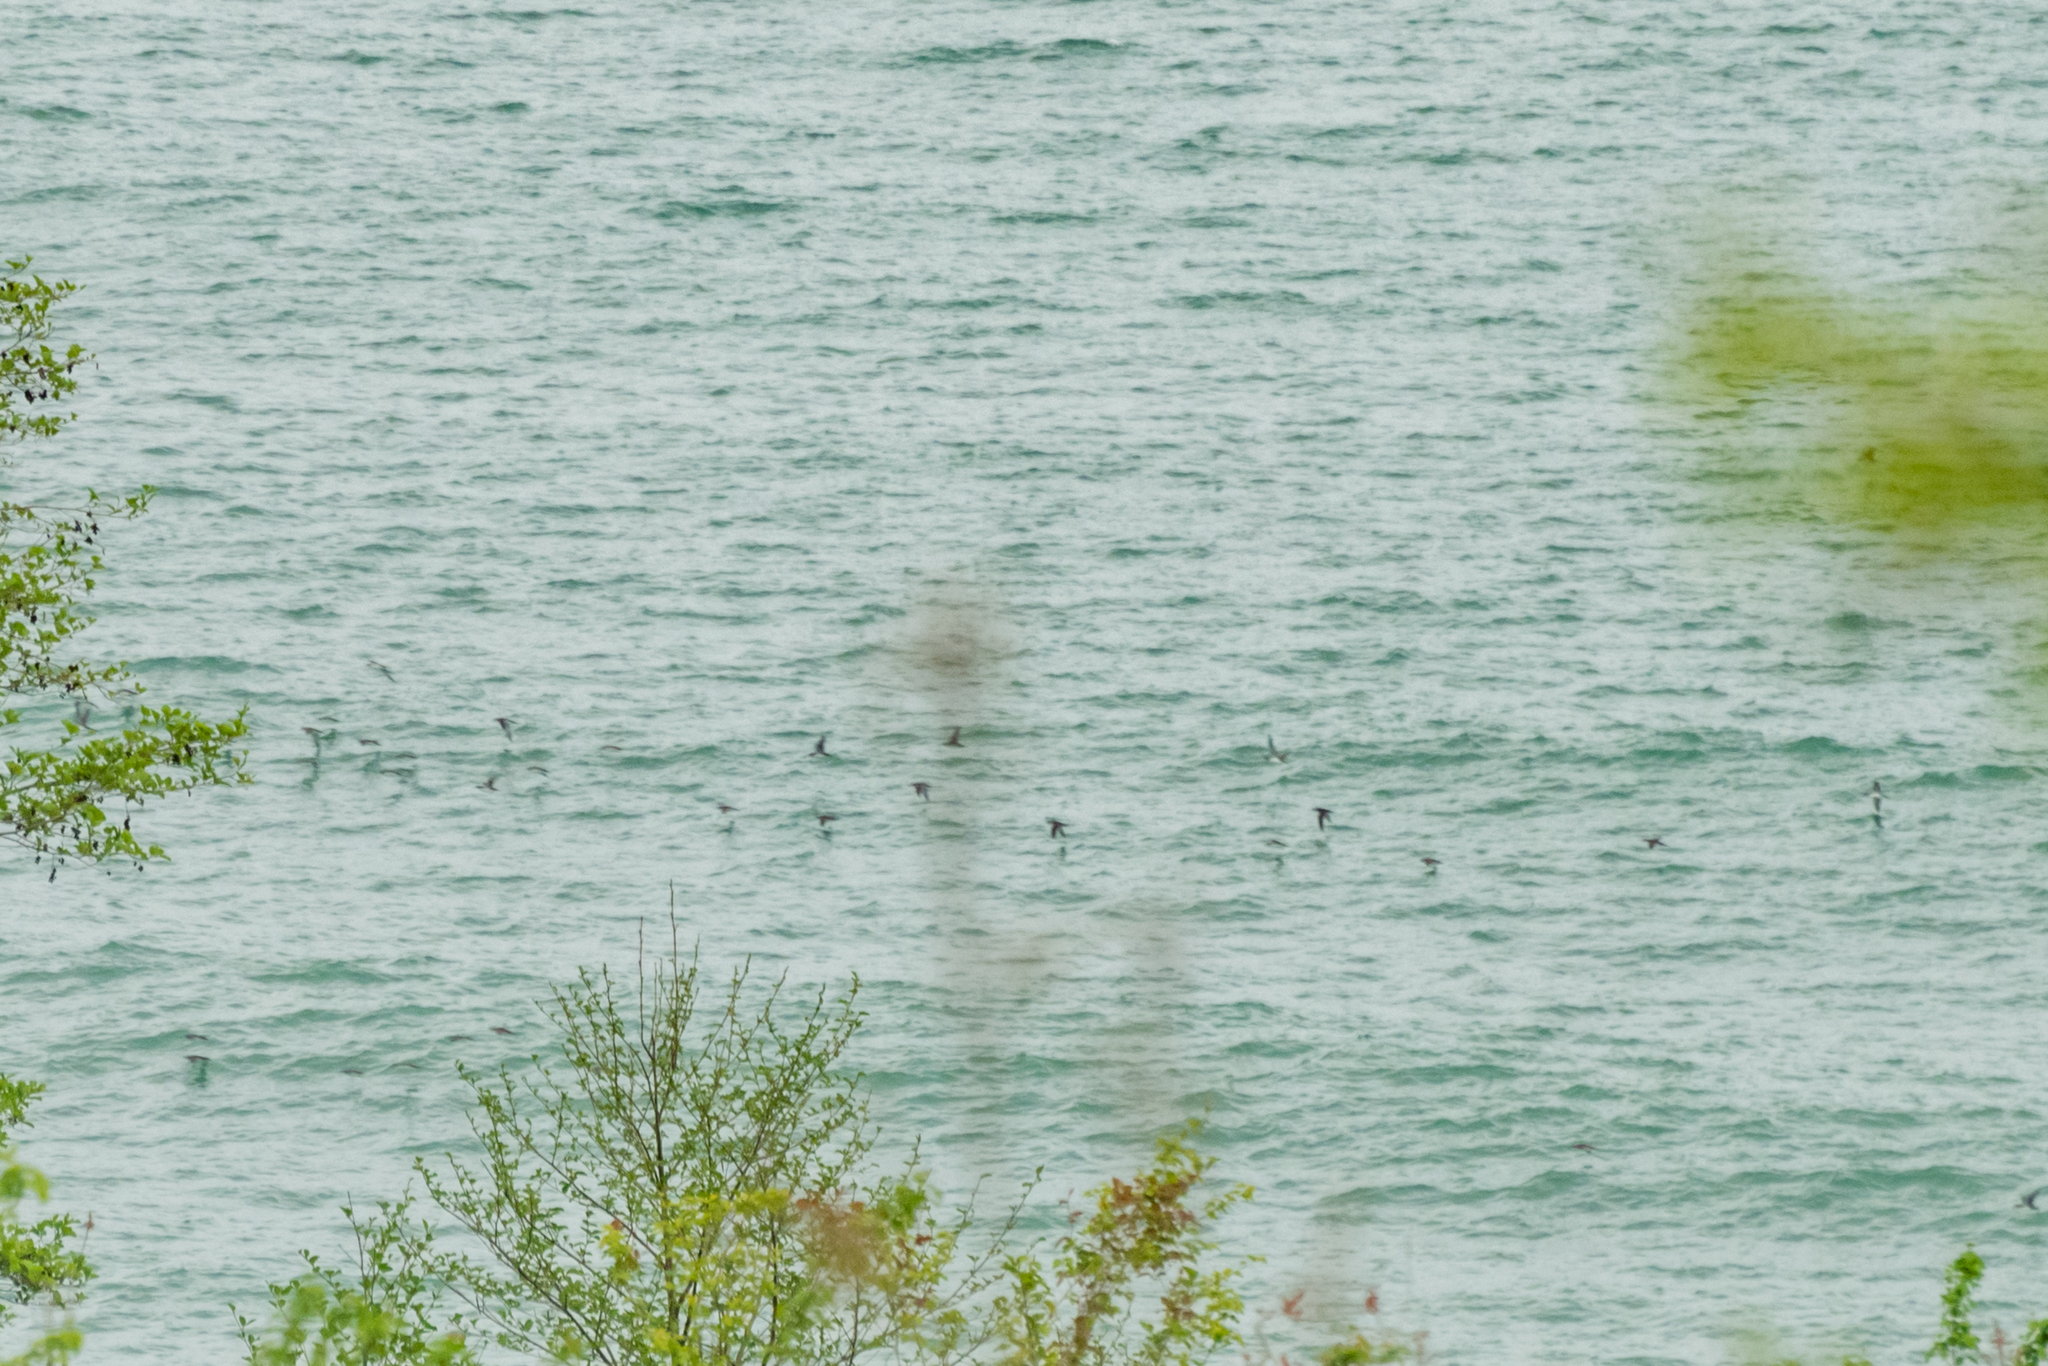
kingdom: Animalia
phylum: Chordata
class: Aves
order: Procellariiformes
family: Procellariidae
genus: Puffinus
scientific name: Puffinus yelkouan
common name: Yelkouan shearwater
